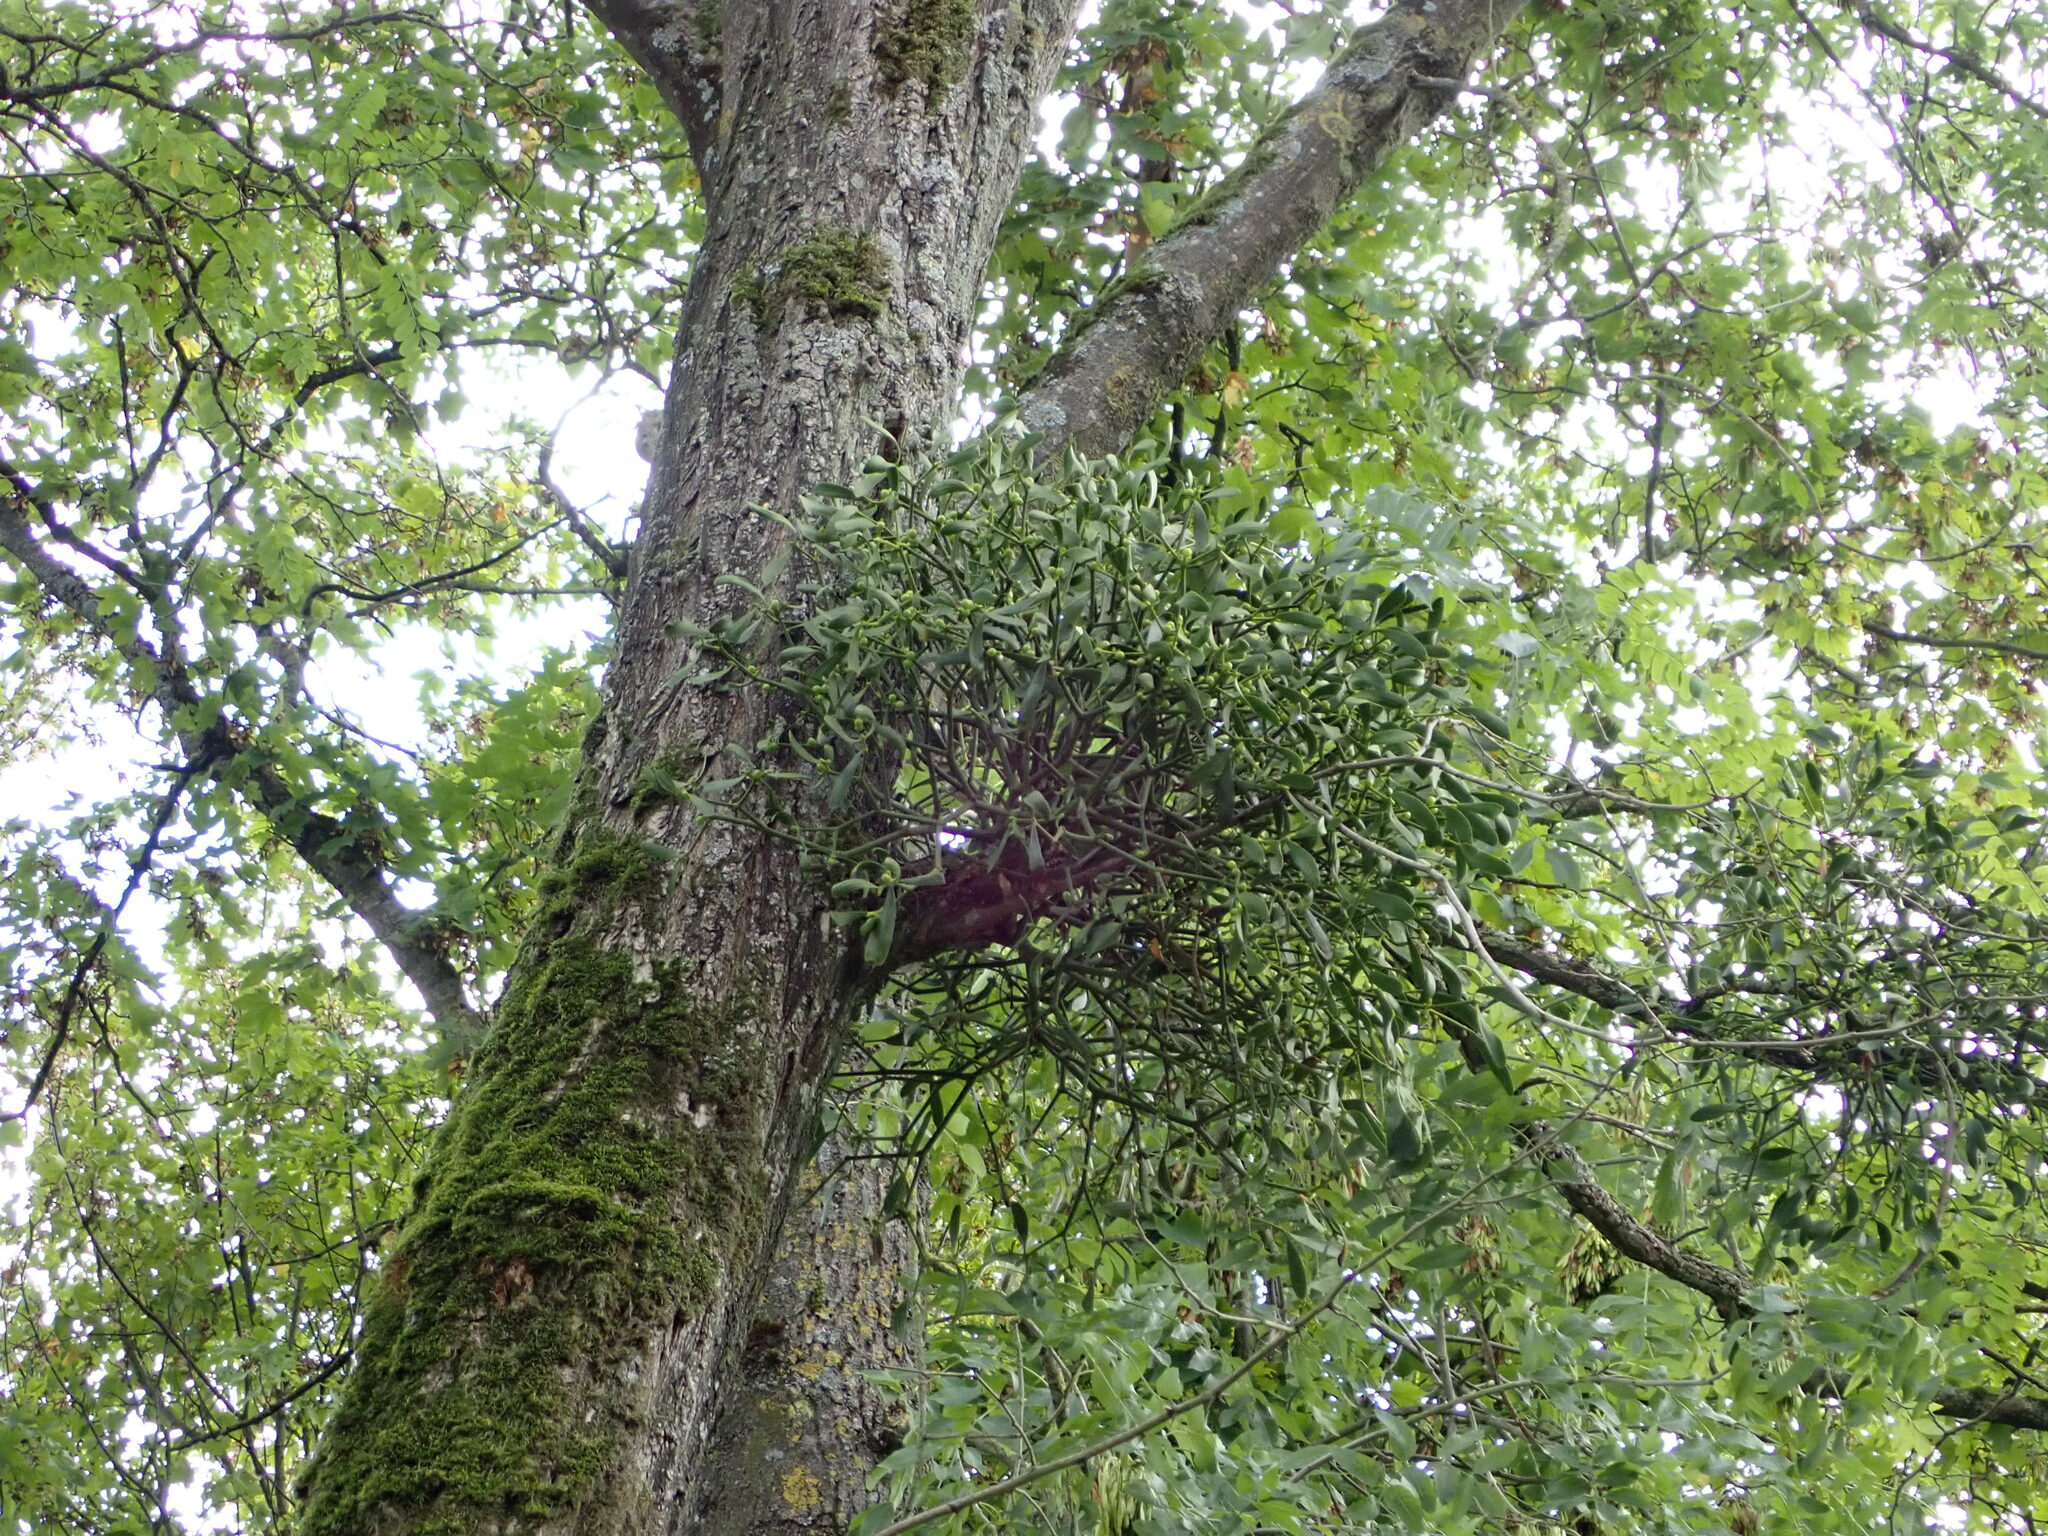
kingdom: Plantae
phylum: Tracheophyta
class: Magnoliopsida
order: Santalales
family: Viscaceae
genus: Viscum
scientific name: Viscum album
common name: Mistletoe
